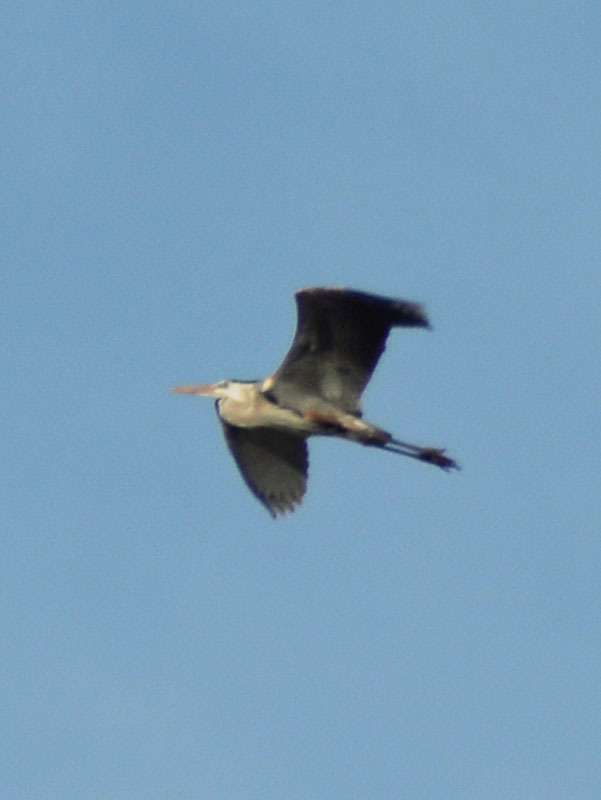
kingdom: Animalia
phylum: Chordata
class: Aves
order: Pelecaniformes
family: Ardeidae
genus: Ardea
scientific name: Ardea herodias
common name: Great blue heron
